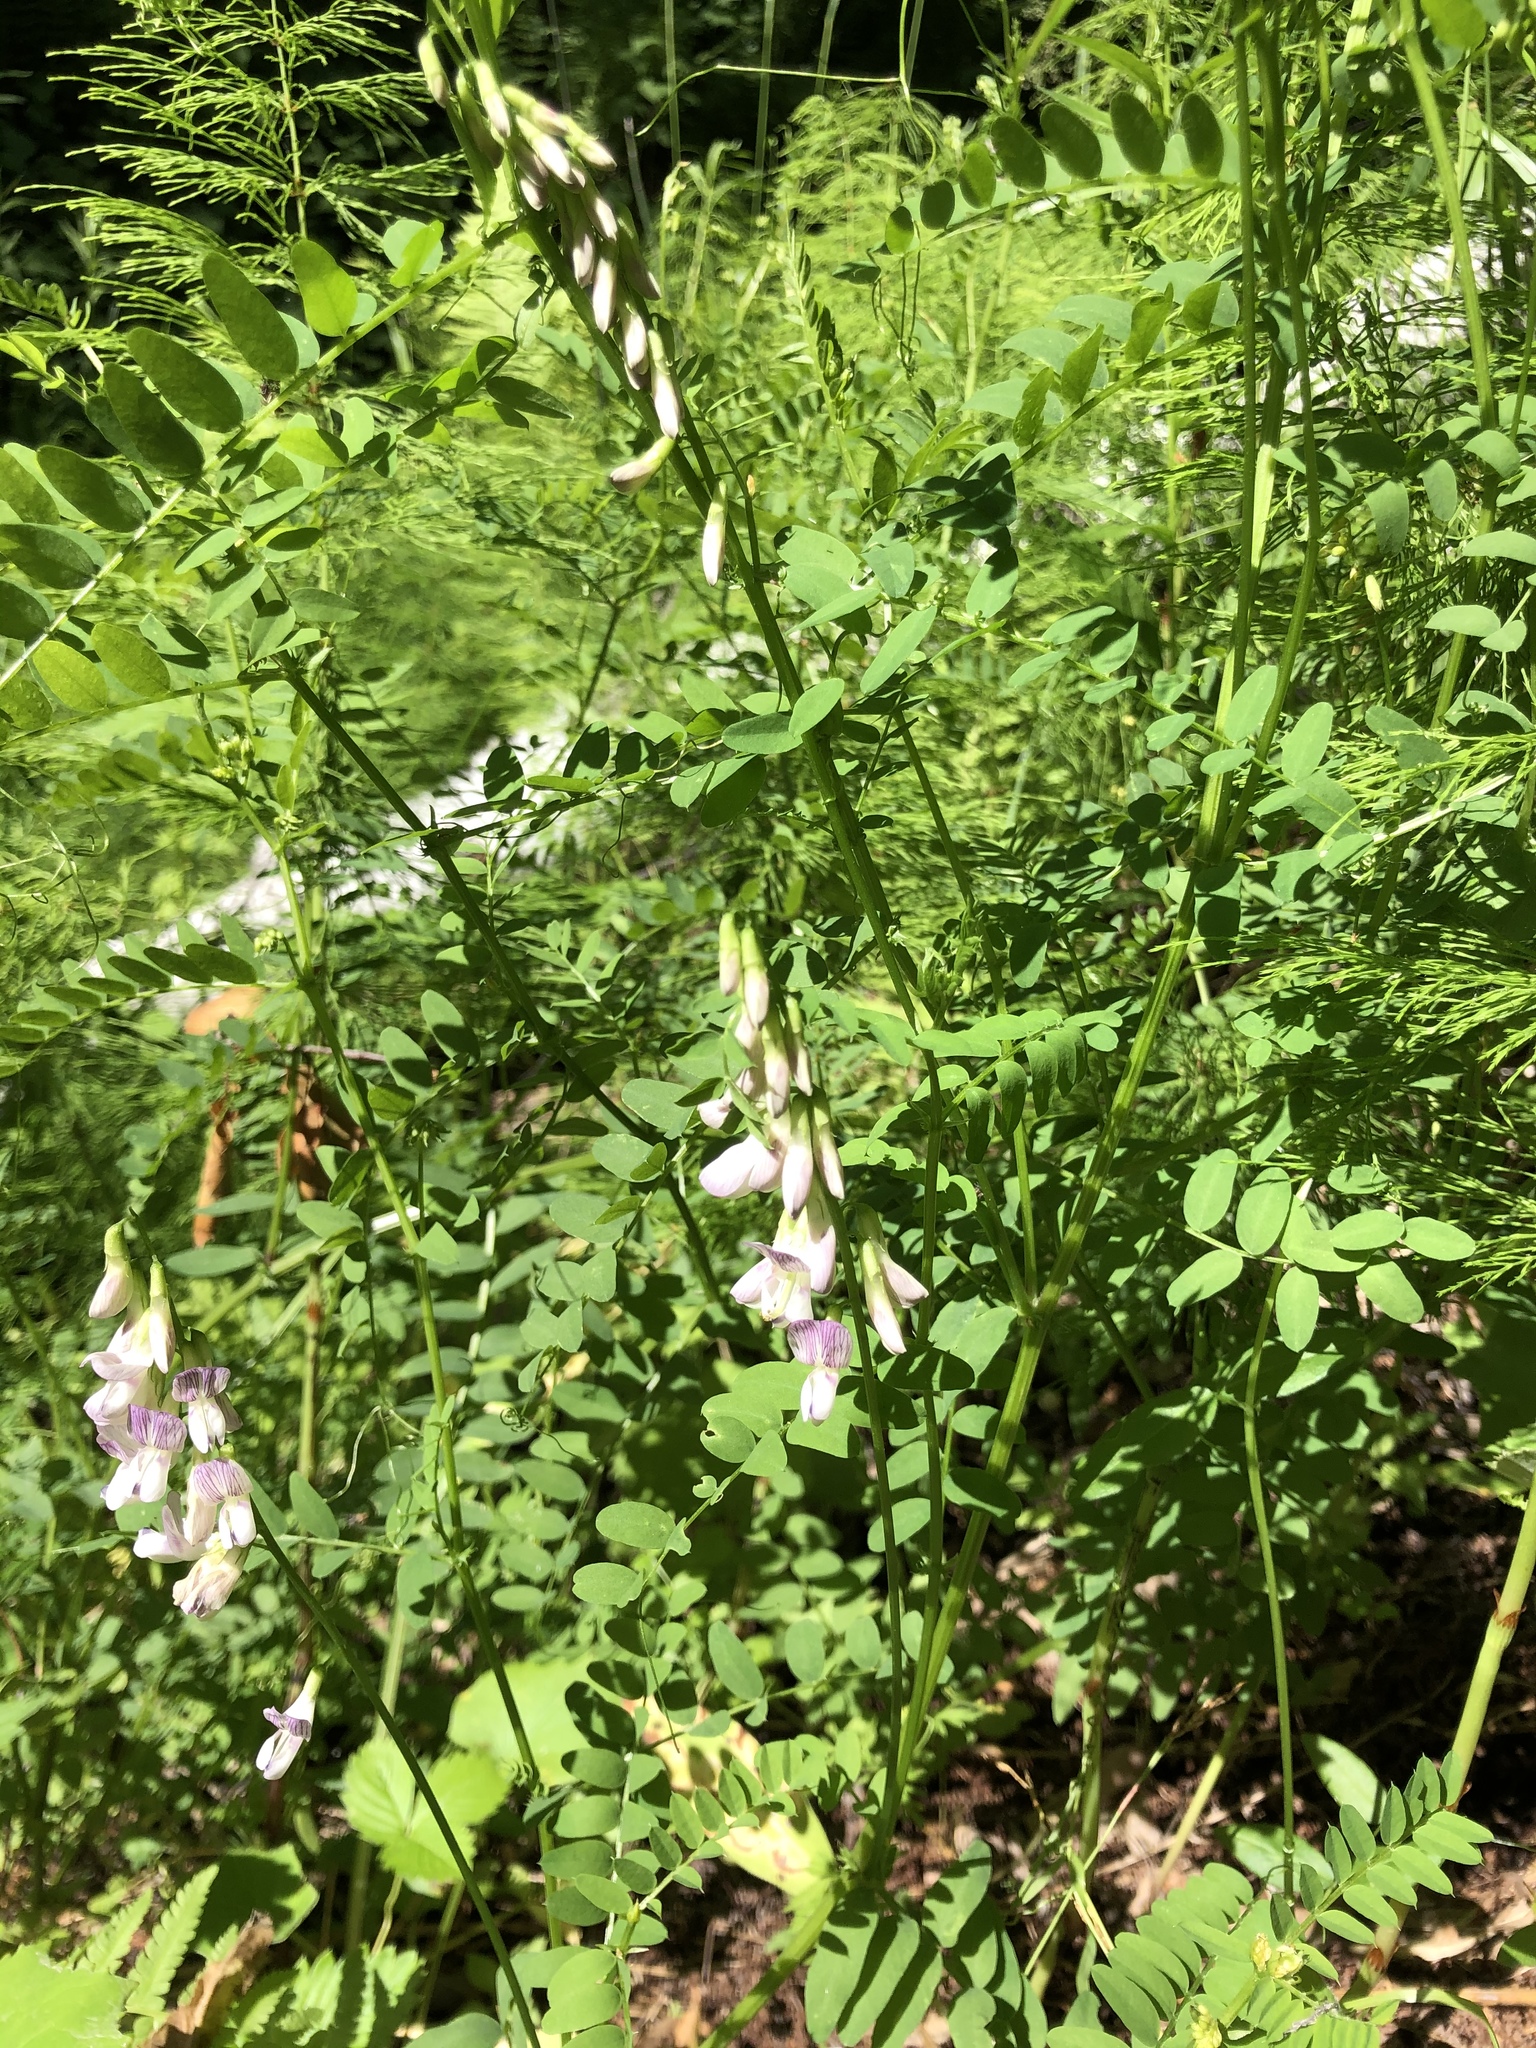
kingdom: Plantae
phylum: Tracheophyta
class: Magnoliopsida
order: Fabales
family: Fabaceae
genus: Vicia
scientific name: Vicia sylvatica
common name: Wood vetch
